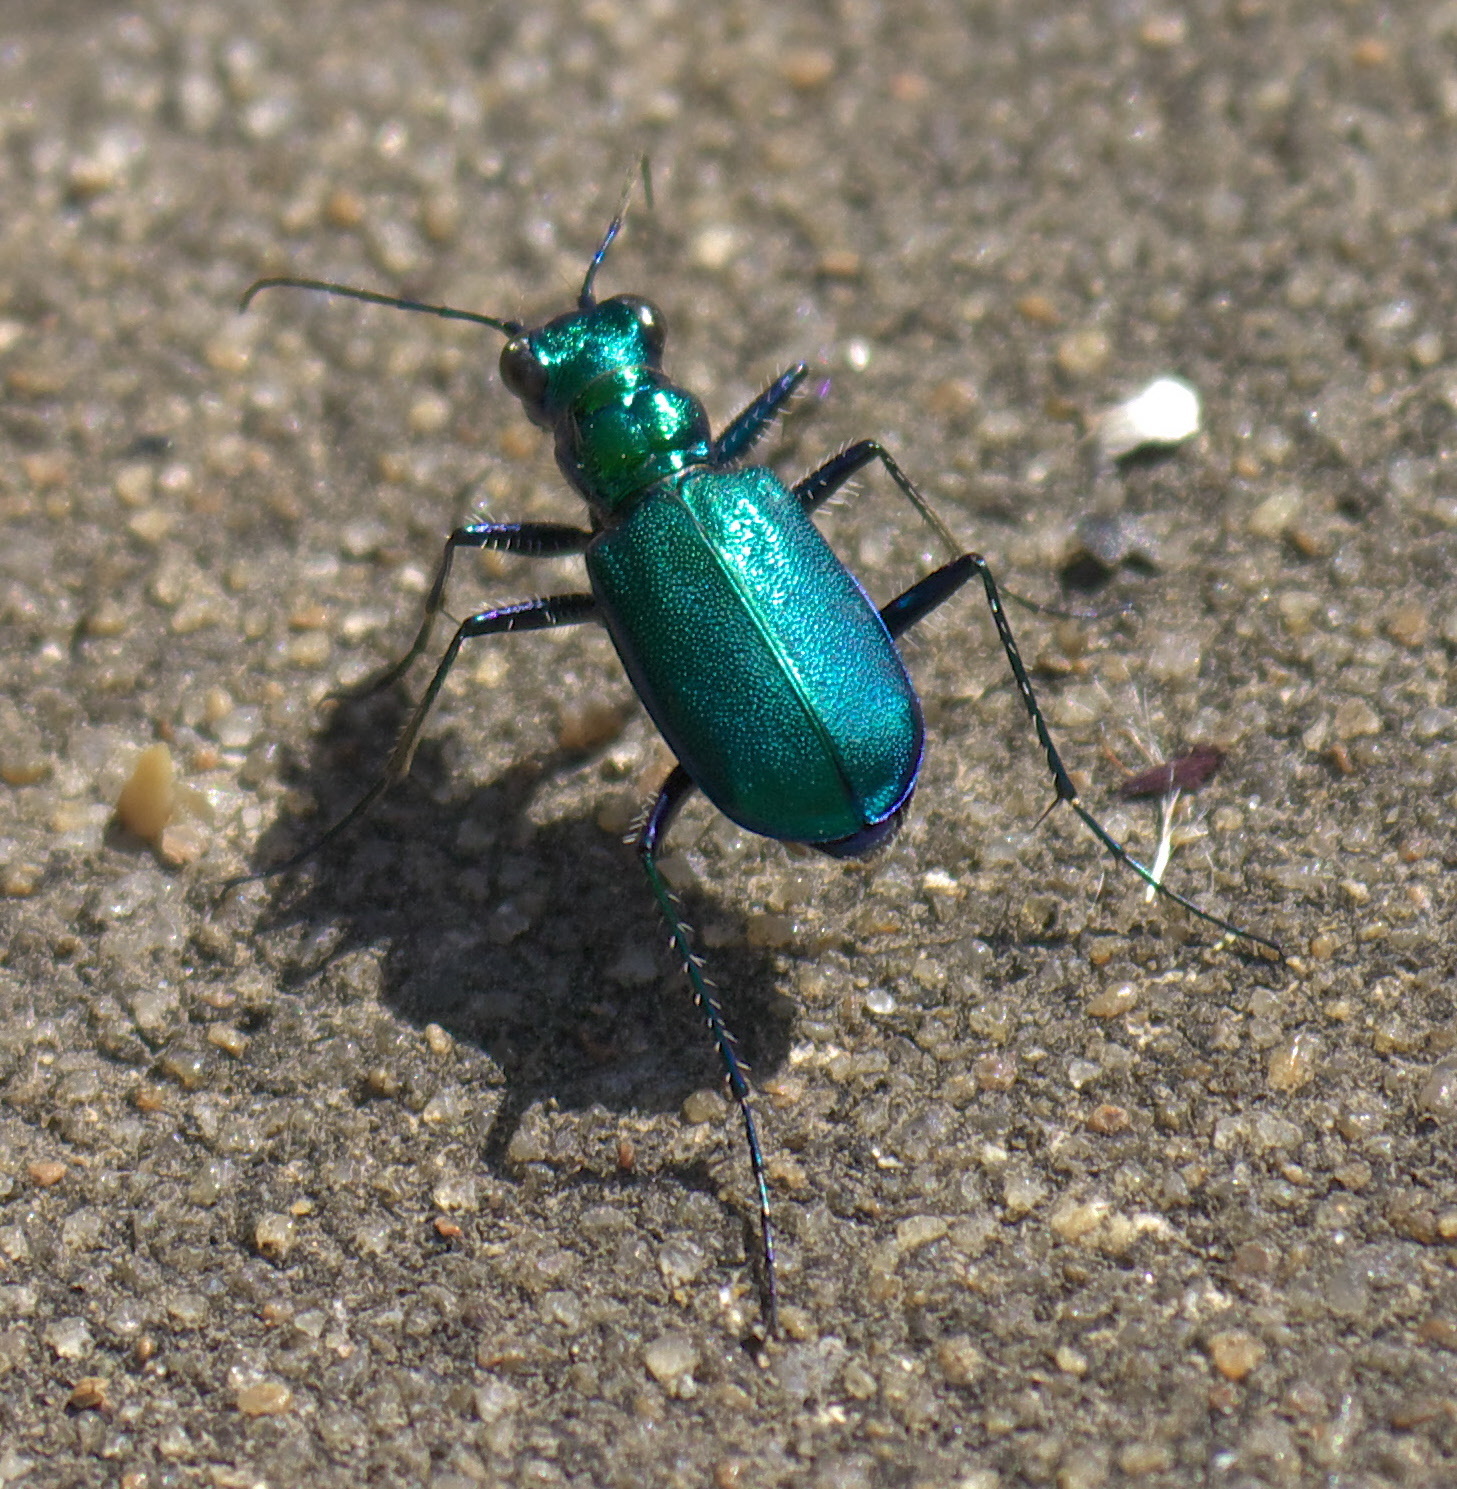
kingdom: Animalia
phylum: Arthropoda
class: Insecta
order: Coleoptera
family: Carabidae
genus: Cicindela
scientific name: Cicindela sexguttata
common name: Six-spotted tiger beetle
